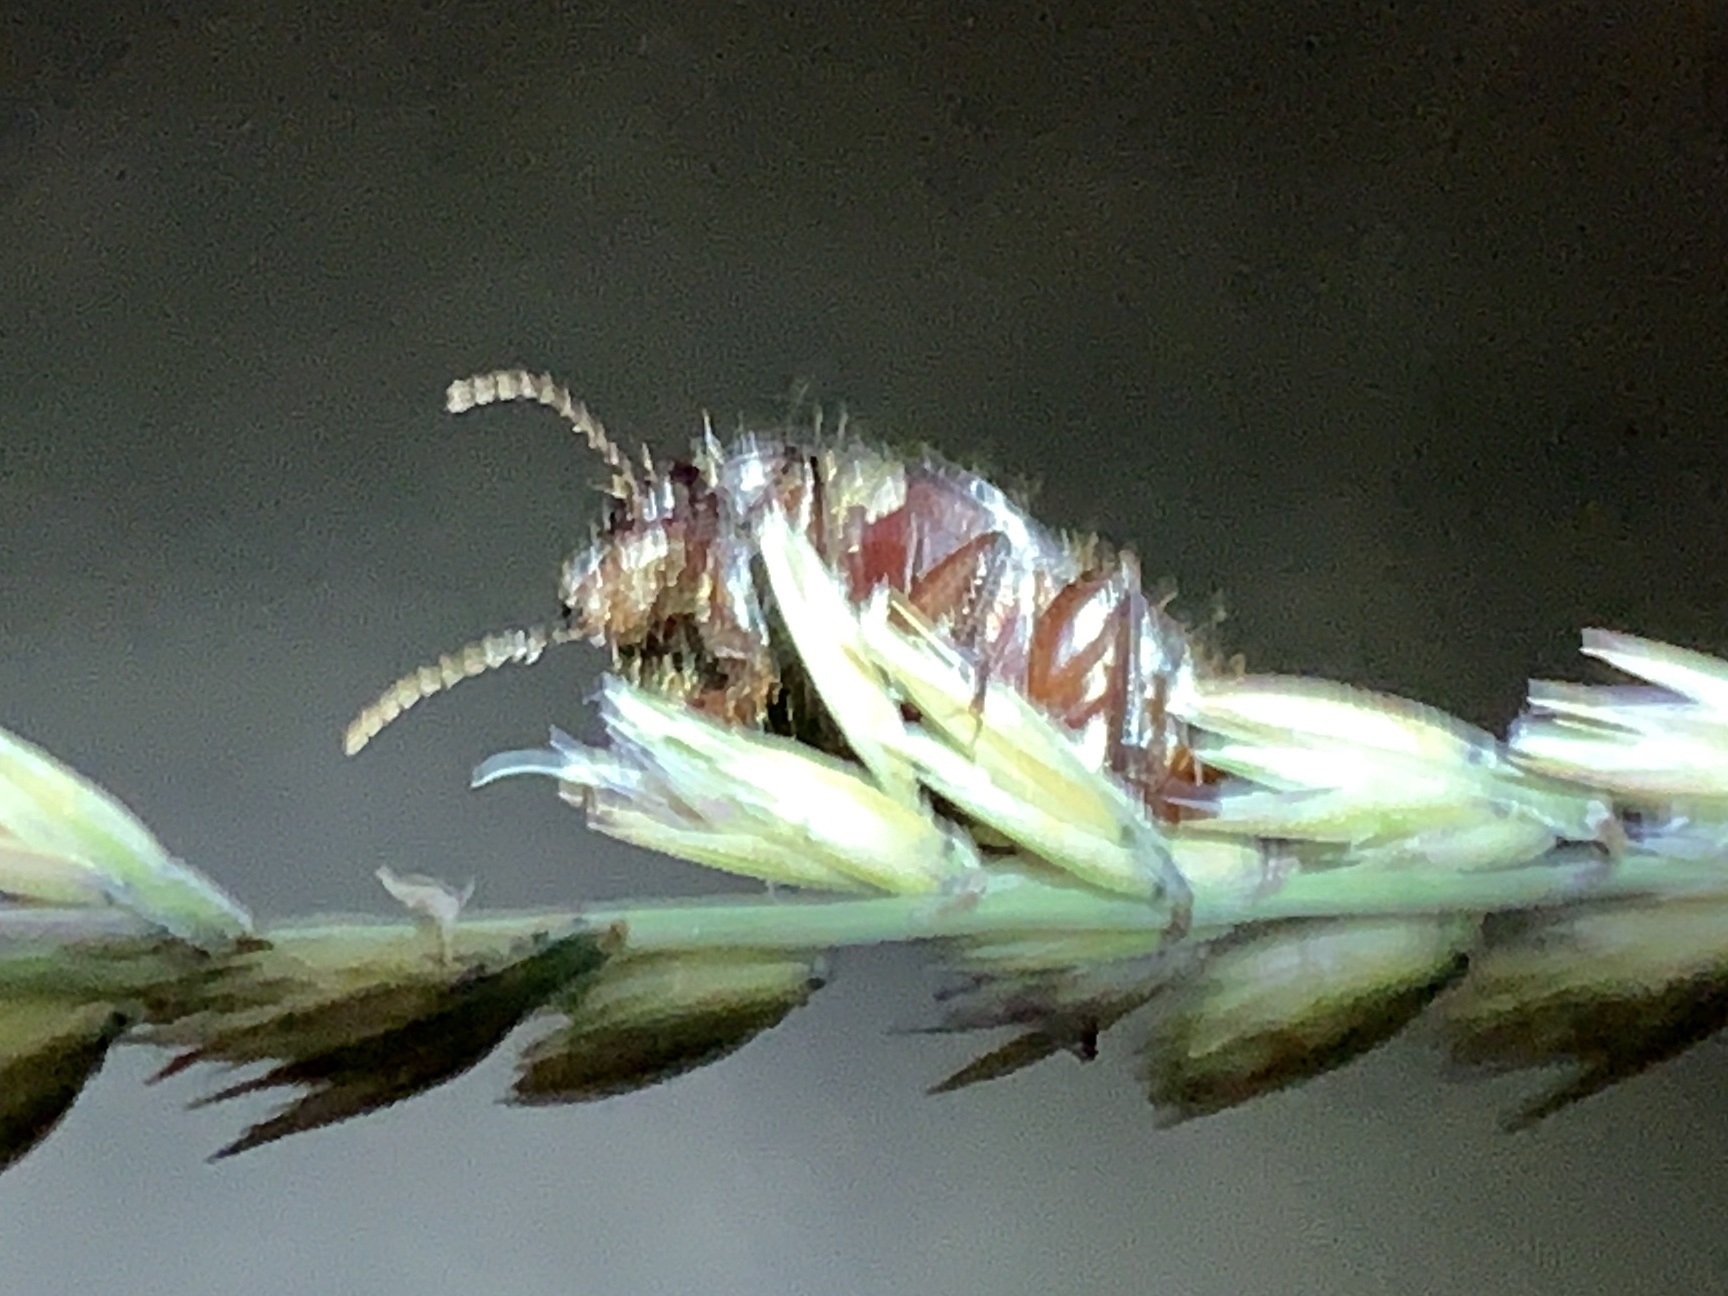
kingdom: Animalia
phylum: Arthropoda
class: Insecta
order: Coleoptera
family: Carabidae
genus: Euryderus
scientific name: Euryderus grossus
